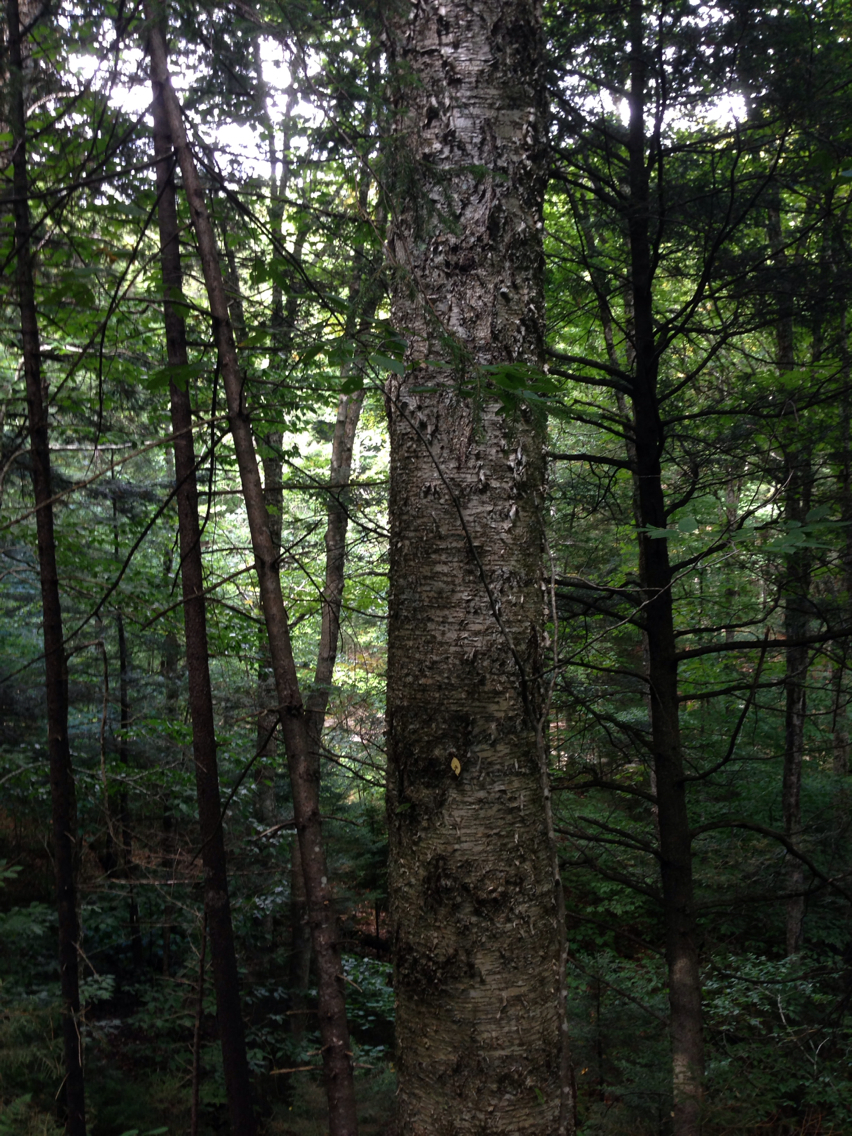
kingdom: Plantae
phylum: Tracheophyta
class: Magnoliopsida
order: Fagales
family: Betulaceae
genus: Betula
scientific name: Betula alleghaniensis
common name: Yellow birch
